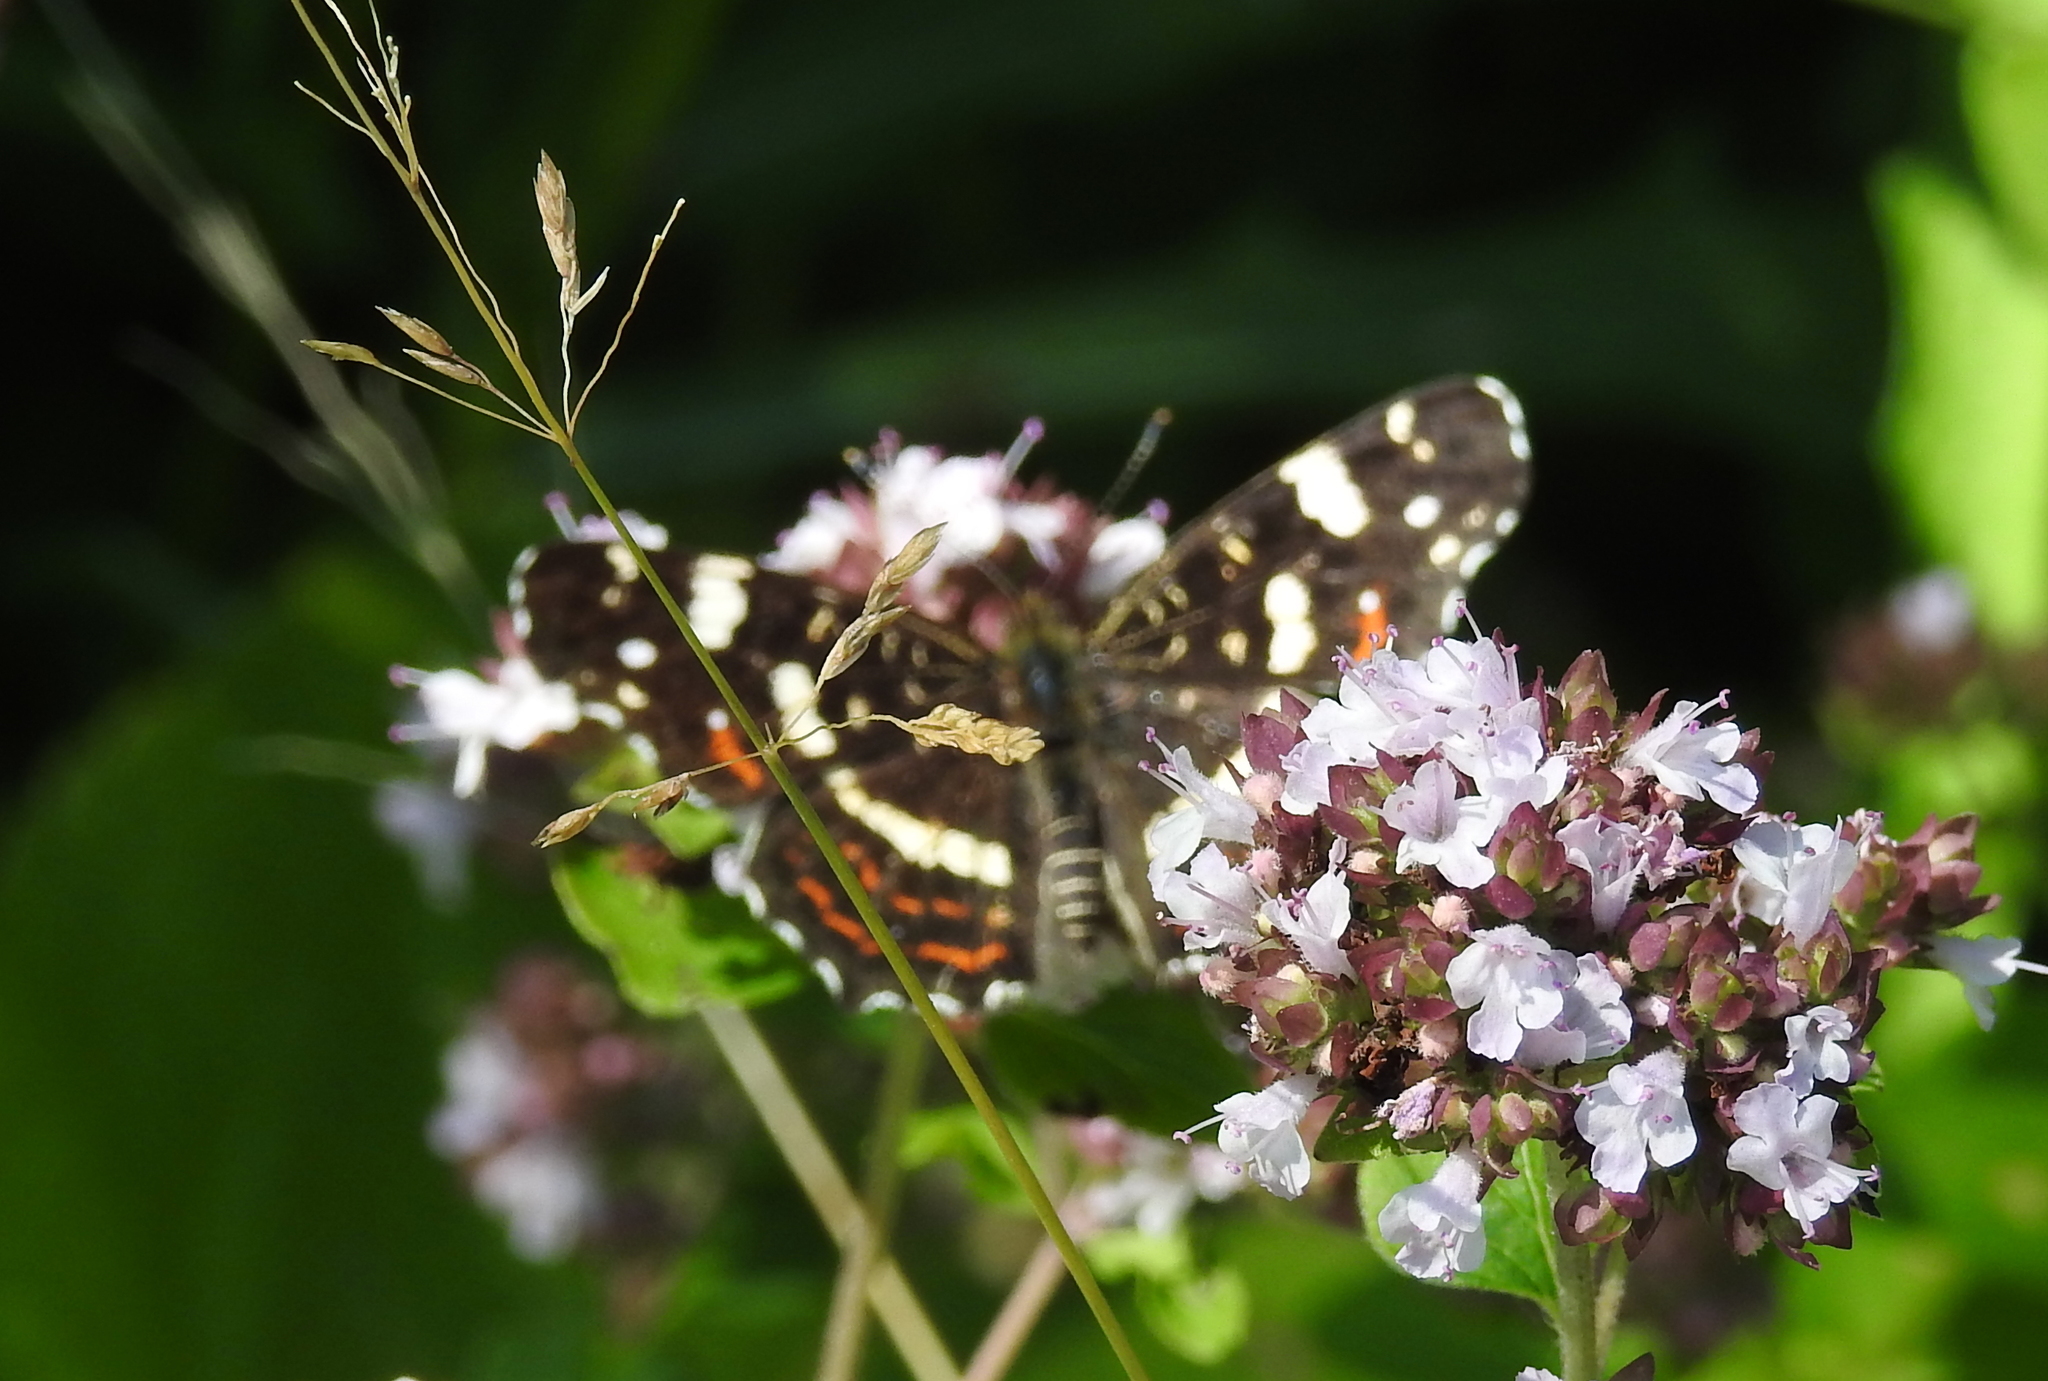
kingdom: Animalia
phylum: Arthropoda
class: Insecta
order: Lepidoptera
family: Nymphalidae
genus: Araschnia
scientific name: Araschnia levana
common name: Map butterfly
